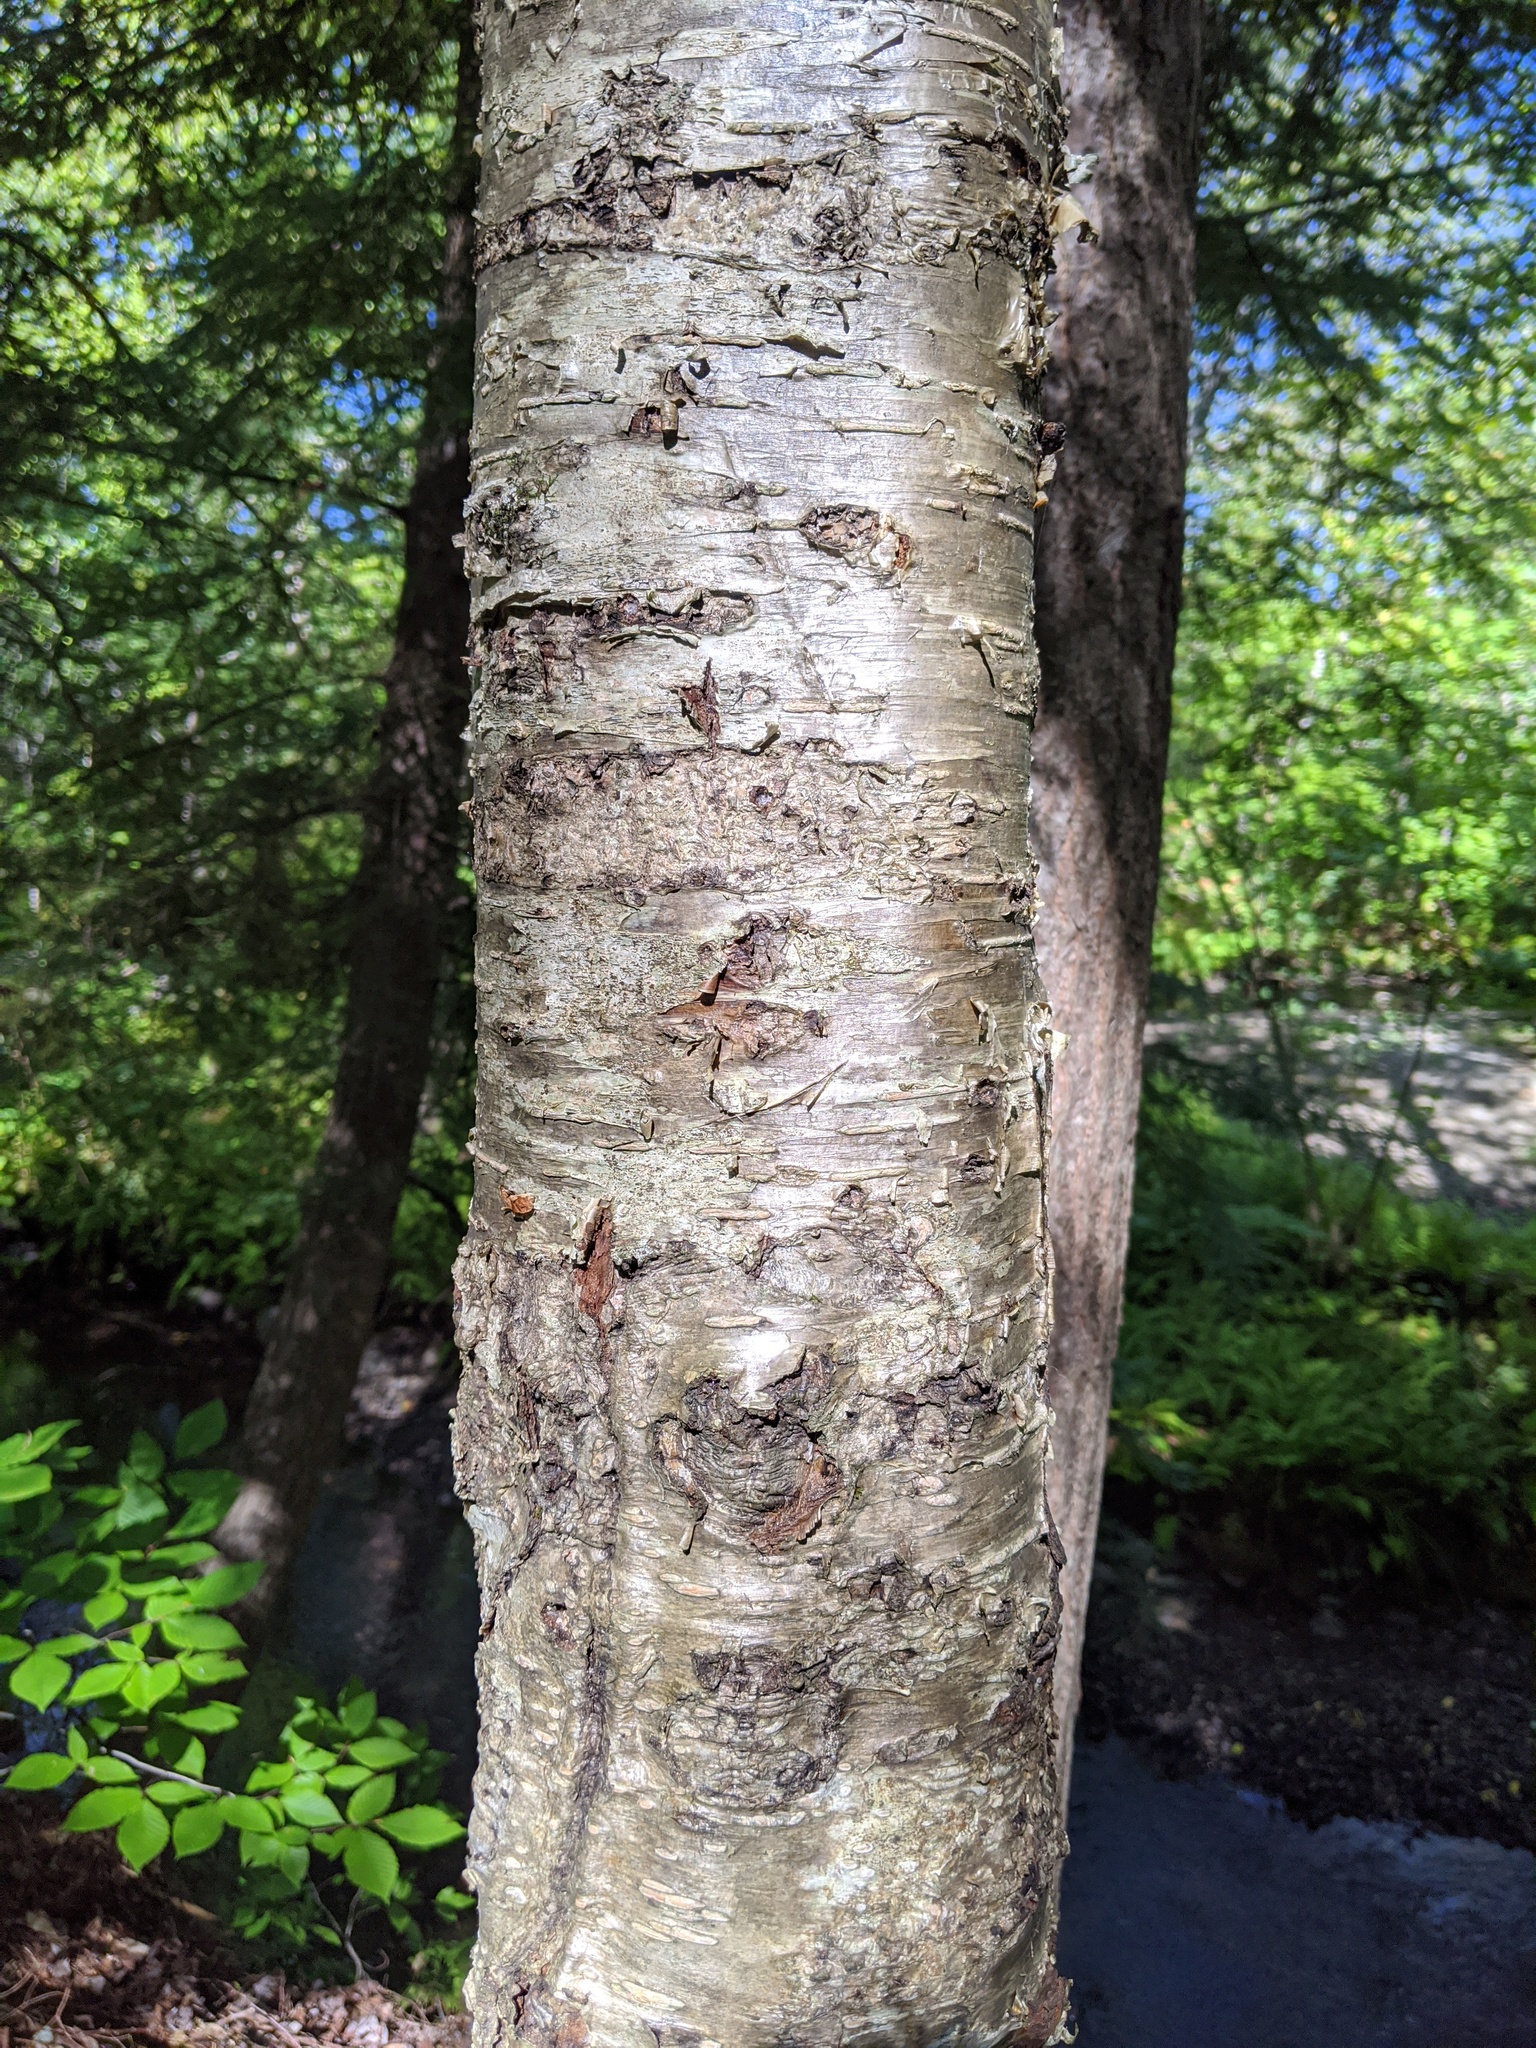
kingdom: Plantae
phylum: Tracheophyta
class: Magnoliopsida
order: Fagales
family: Betulaceae
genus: Betula
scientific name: Betula alleghaniensis
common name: Yellow birch
